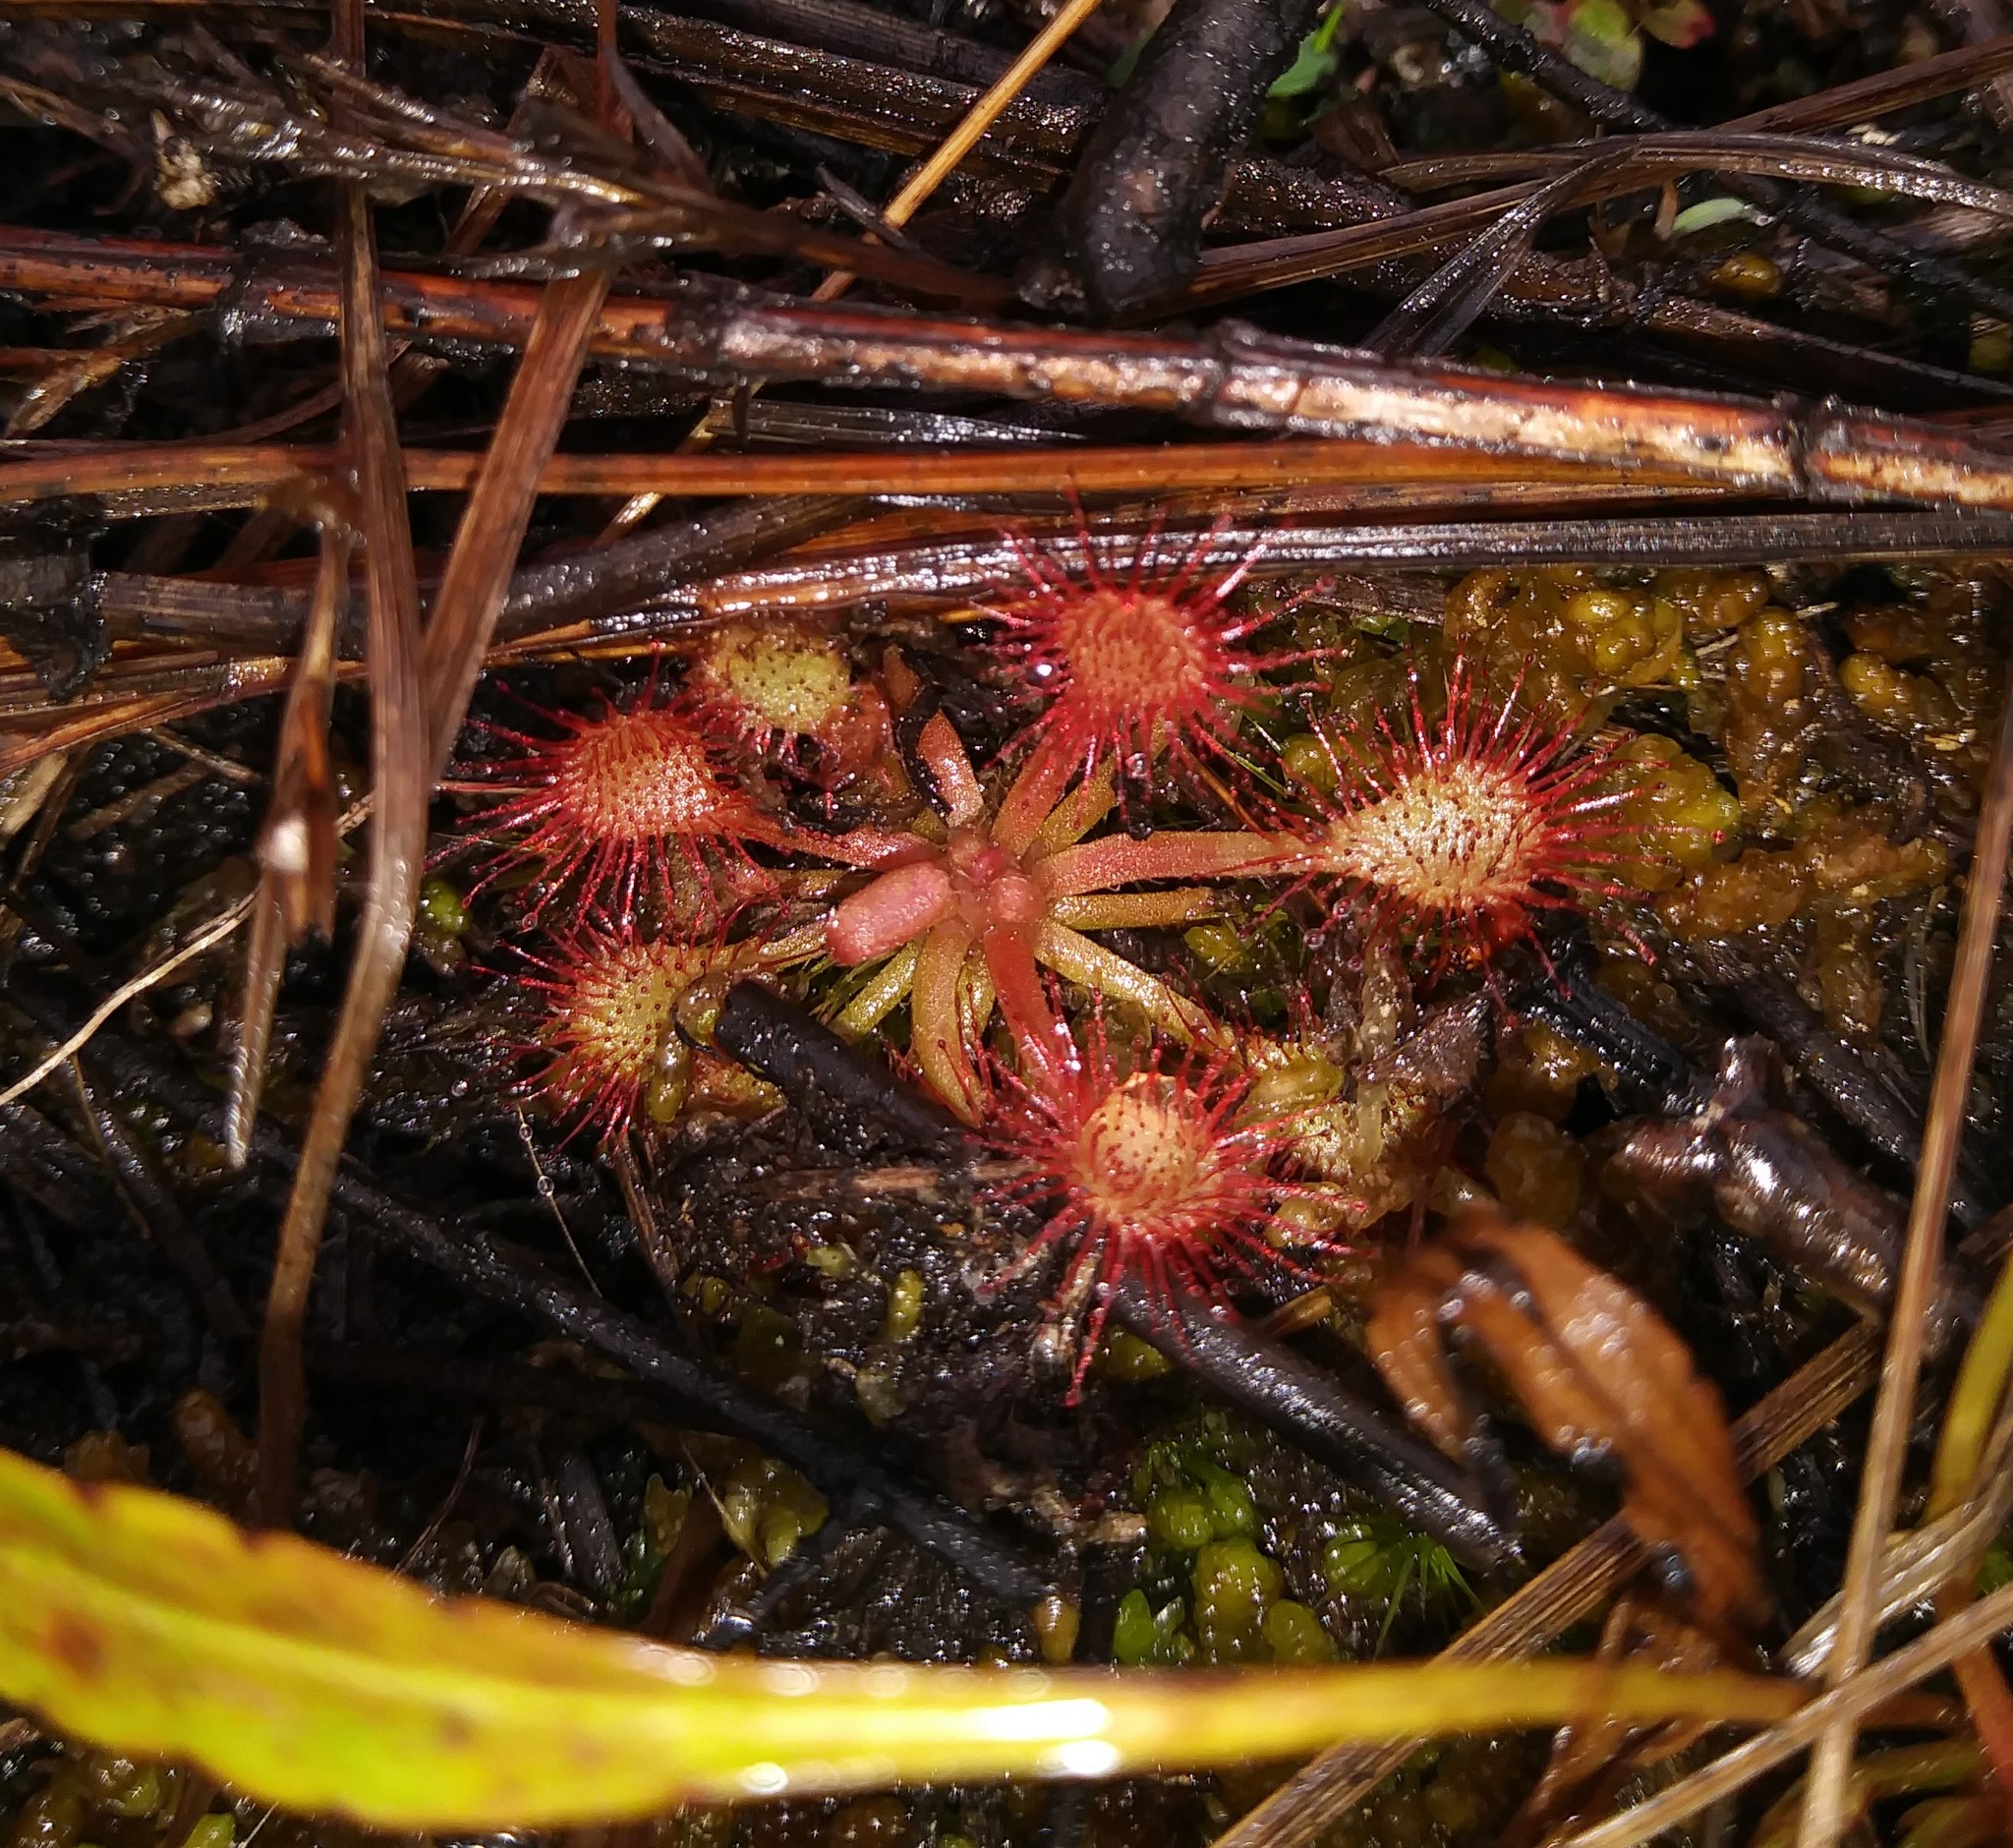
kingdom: Plantae
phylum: Tracheophyta
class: Magnoliopsida
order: Caryophyllales
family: Droseraceae
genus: Drosera
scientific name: Drosera capillaris
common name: Pink sundew
